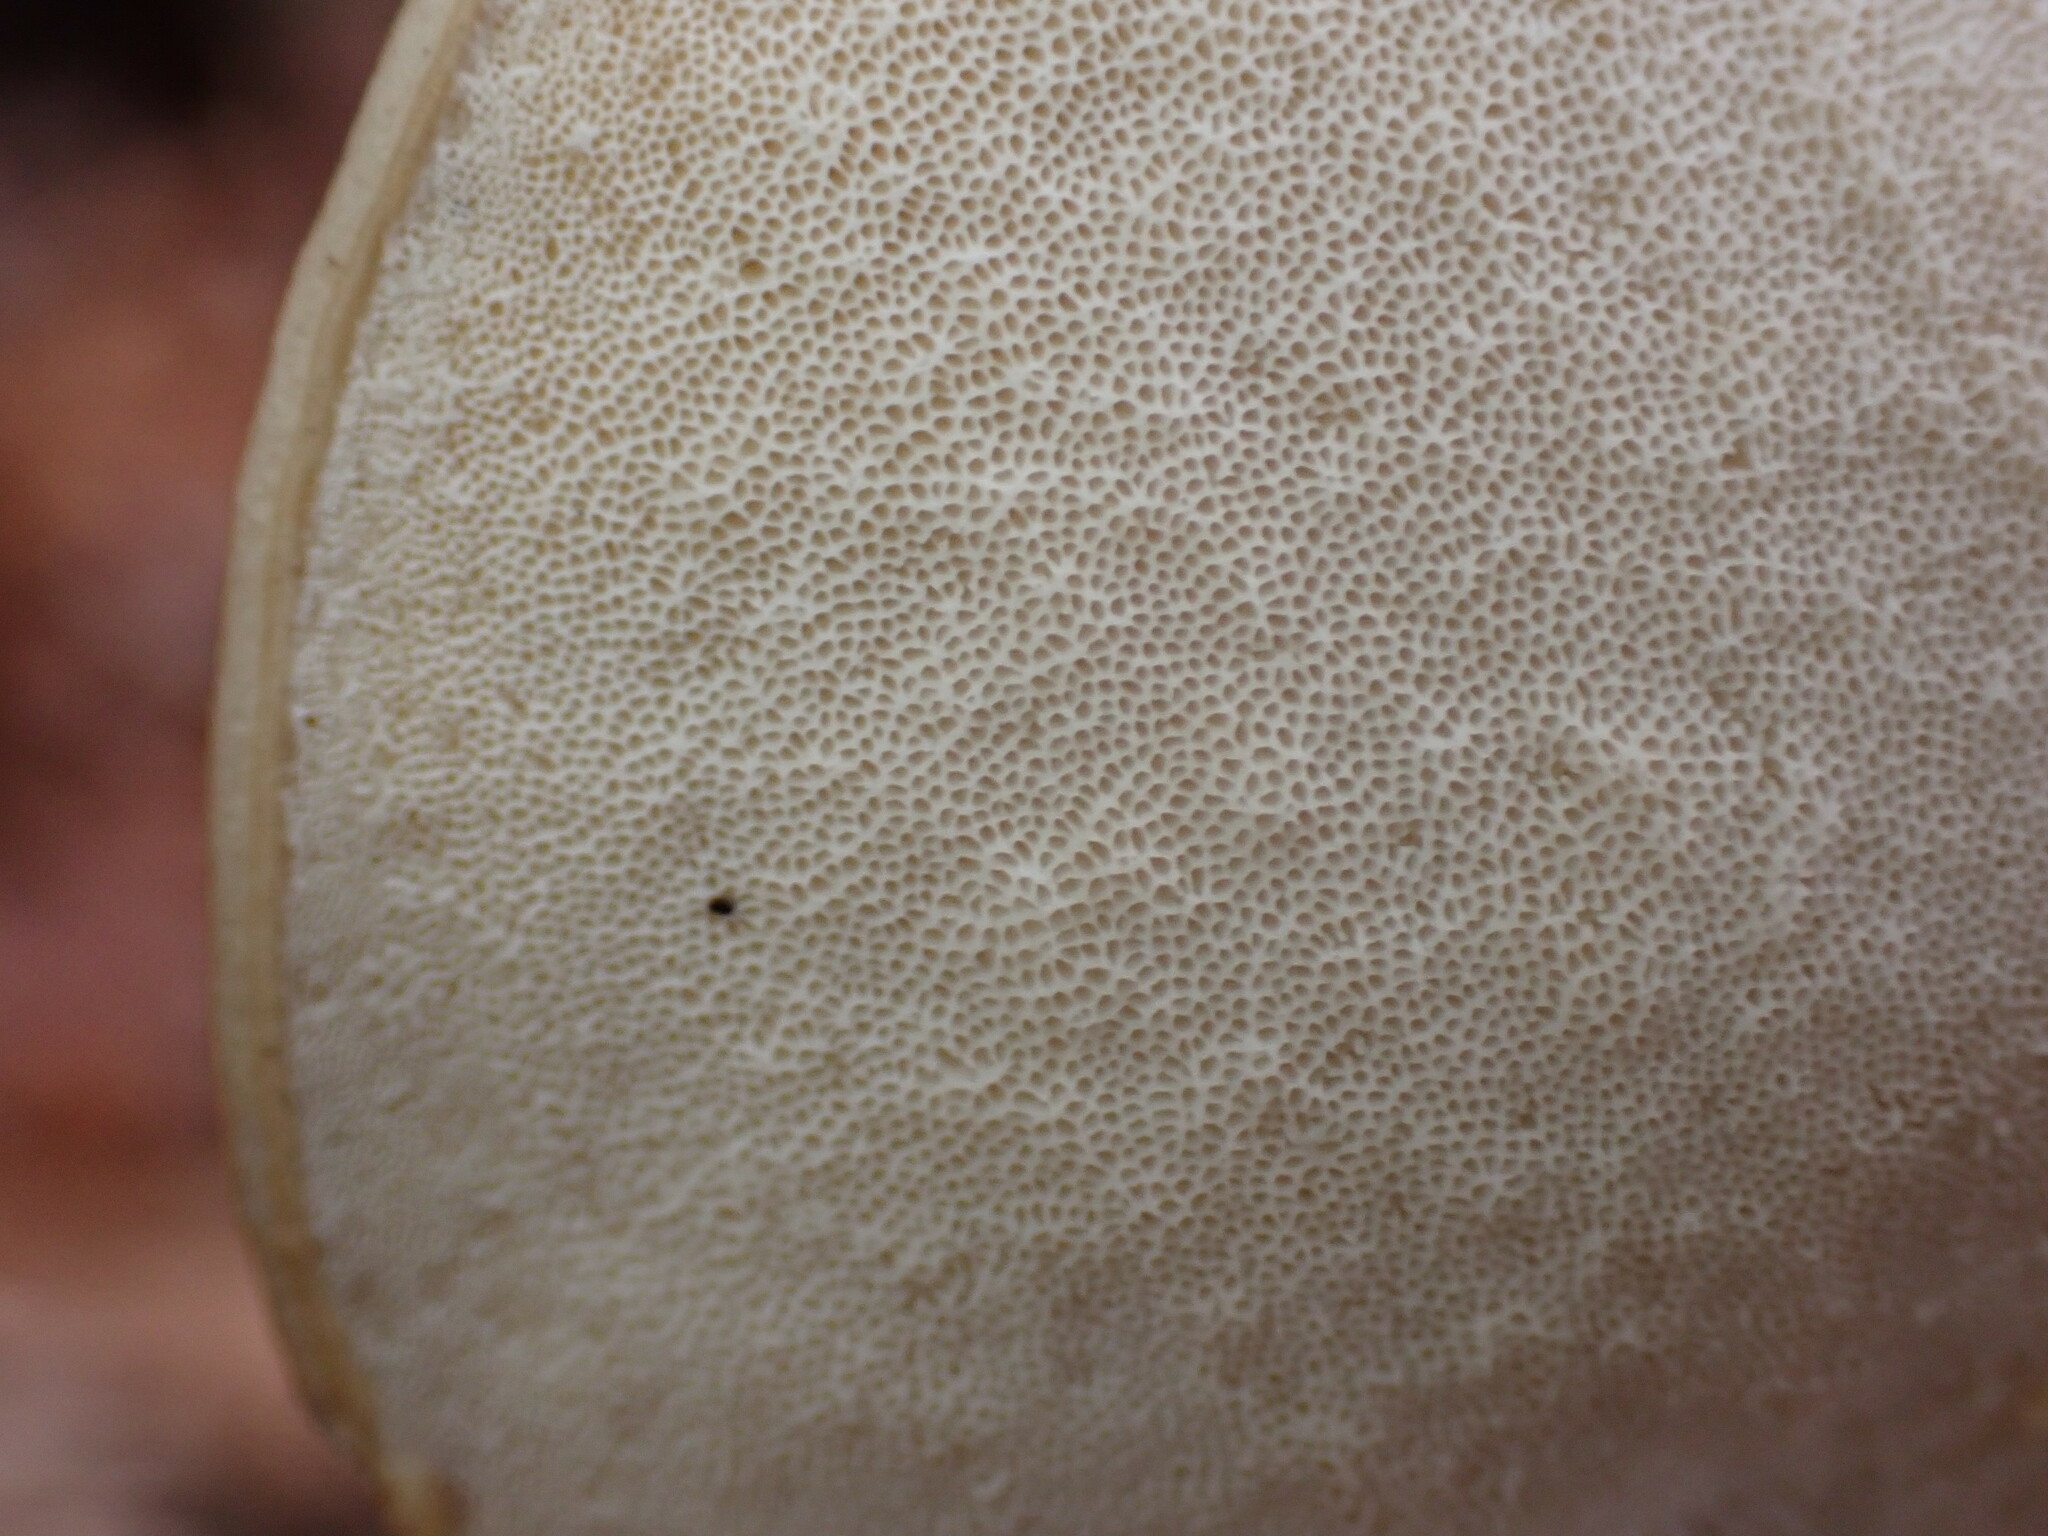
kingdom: Fungi
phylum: Basidiomycota
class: Agaricomycetes
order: Polyporales
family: Incrustoporiaceae
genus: Tyromyces
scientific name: Tyromyces chioneus
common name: White cheese polypore
